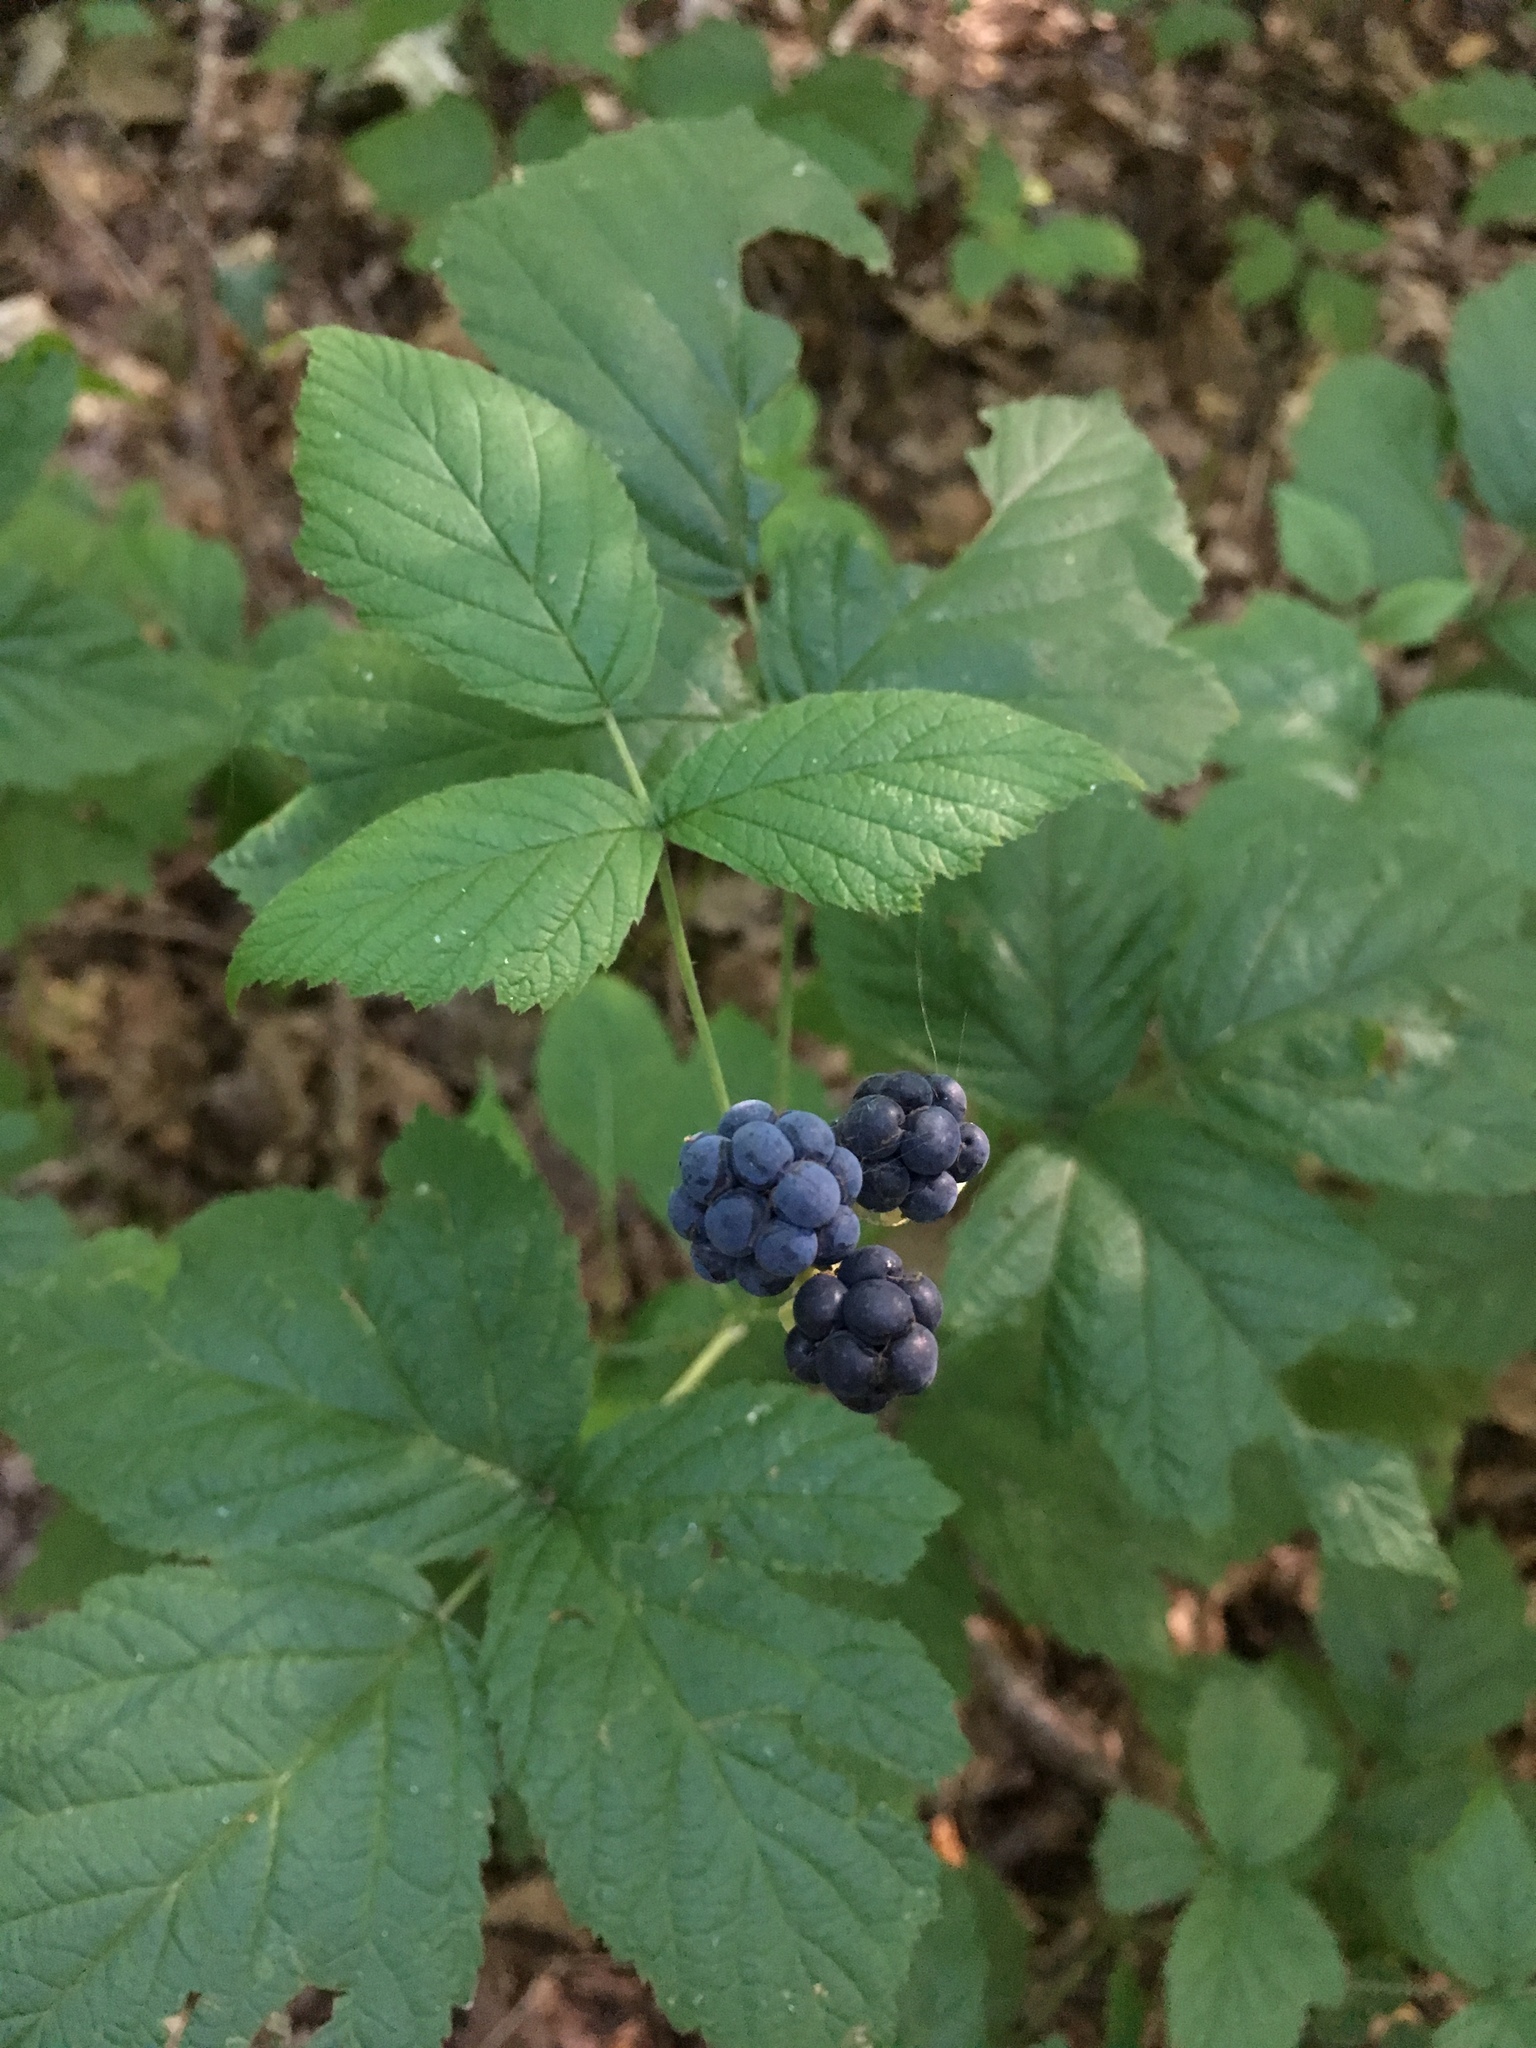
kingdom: Plantae
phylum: Tracheophyta
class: Magnoliopsida
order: Rosales
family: Rosaceae
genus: Rubus
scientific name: Rubus caesius
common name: Dewberry
